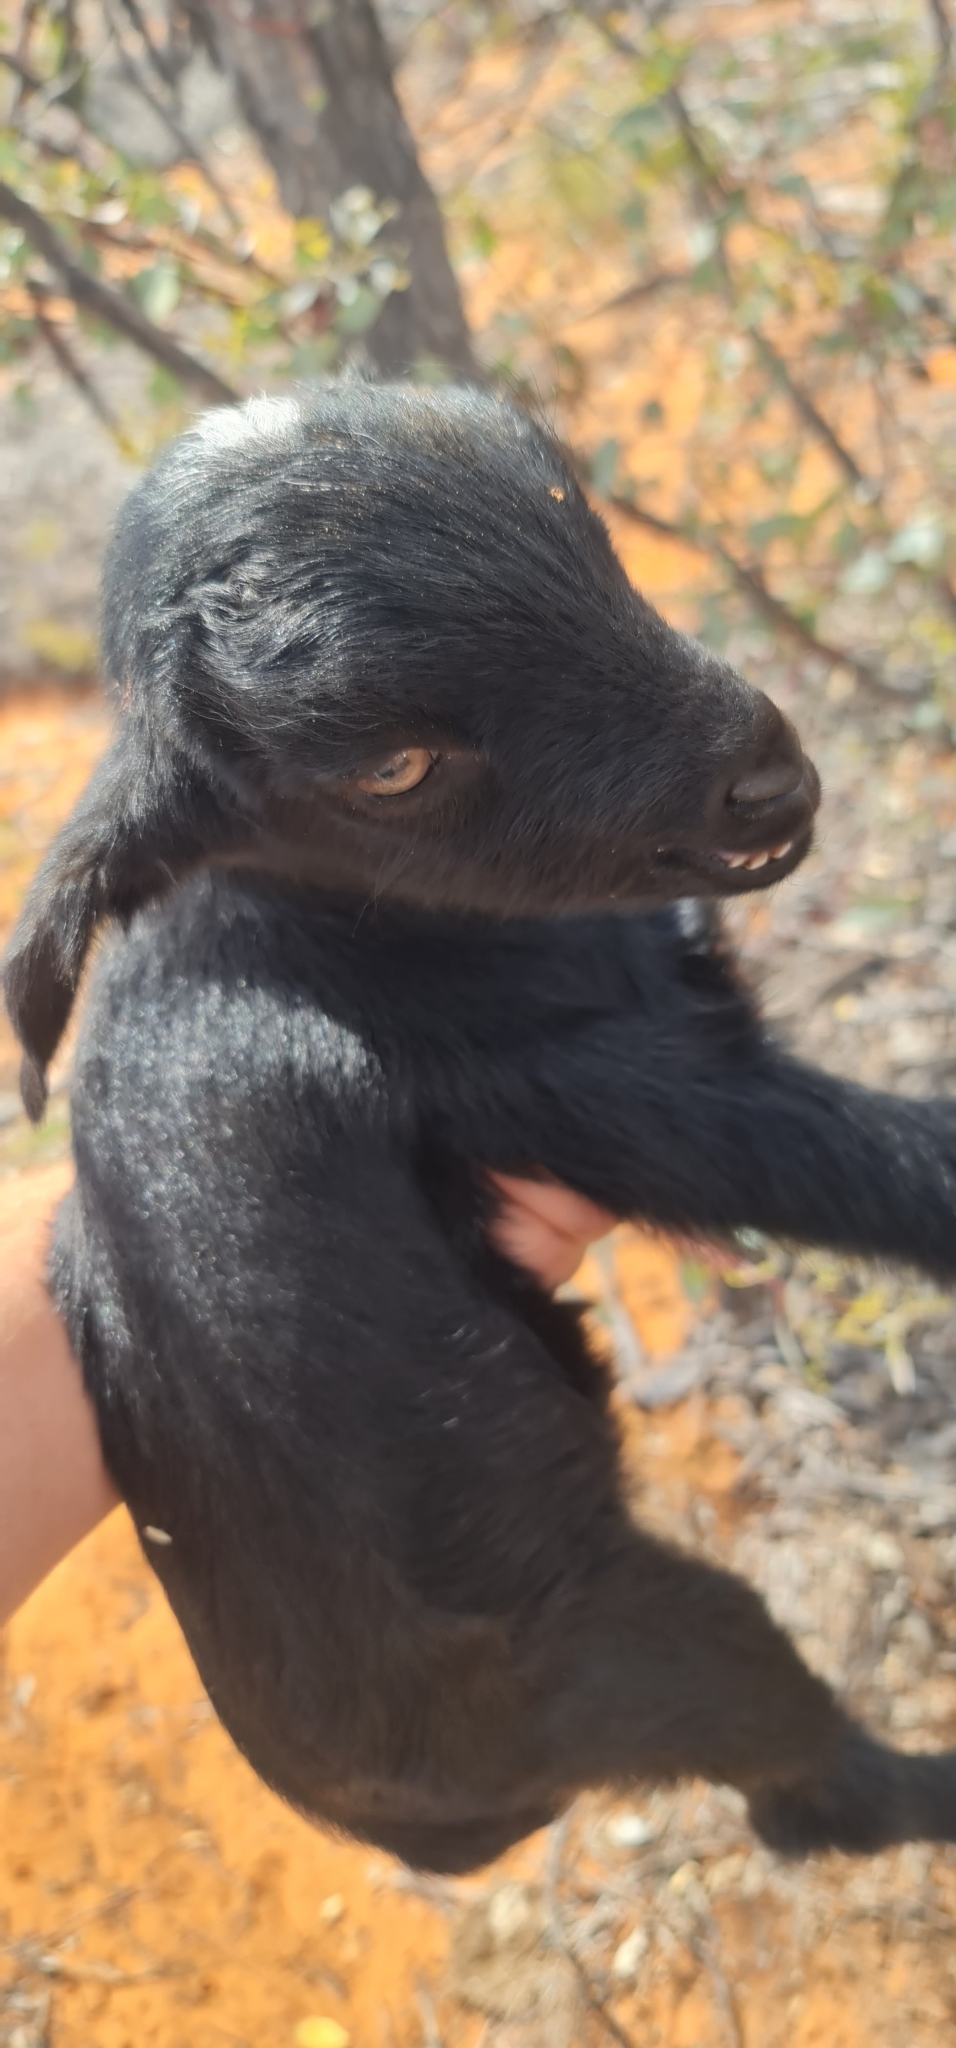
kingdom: Animalia
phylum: Chordata
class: Mammalia
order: Artiodactyla
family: Bovidae
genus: Capra
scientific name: Capra hircus
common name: Domestic goat
